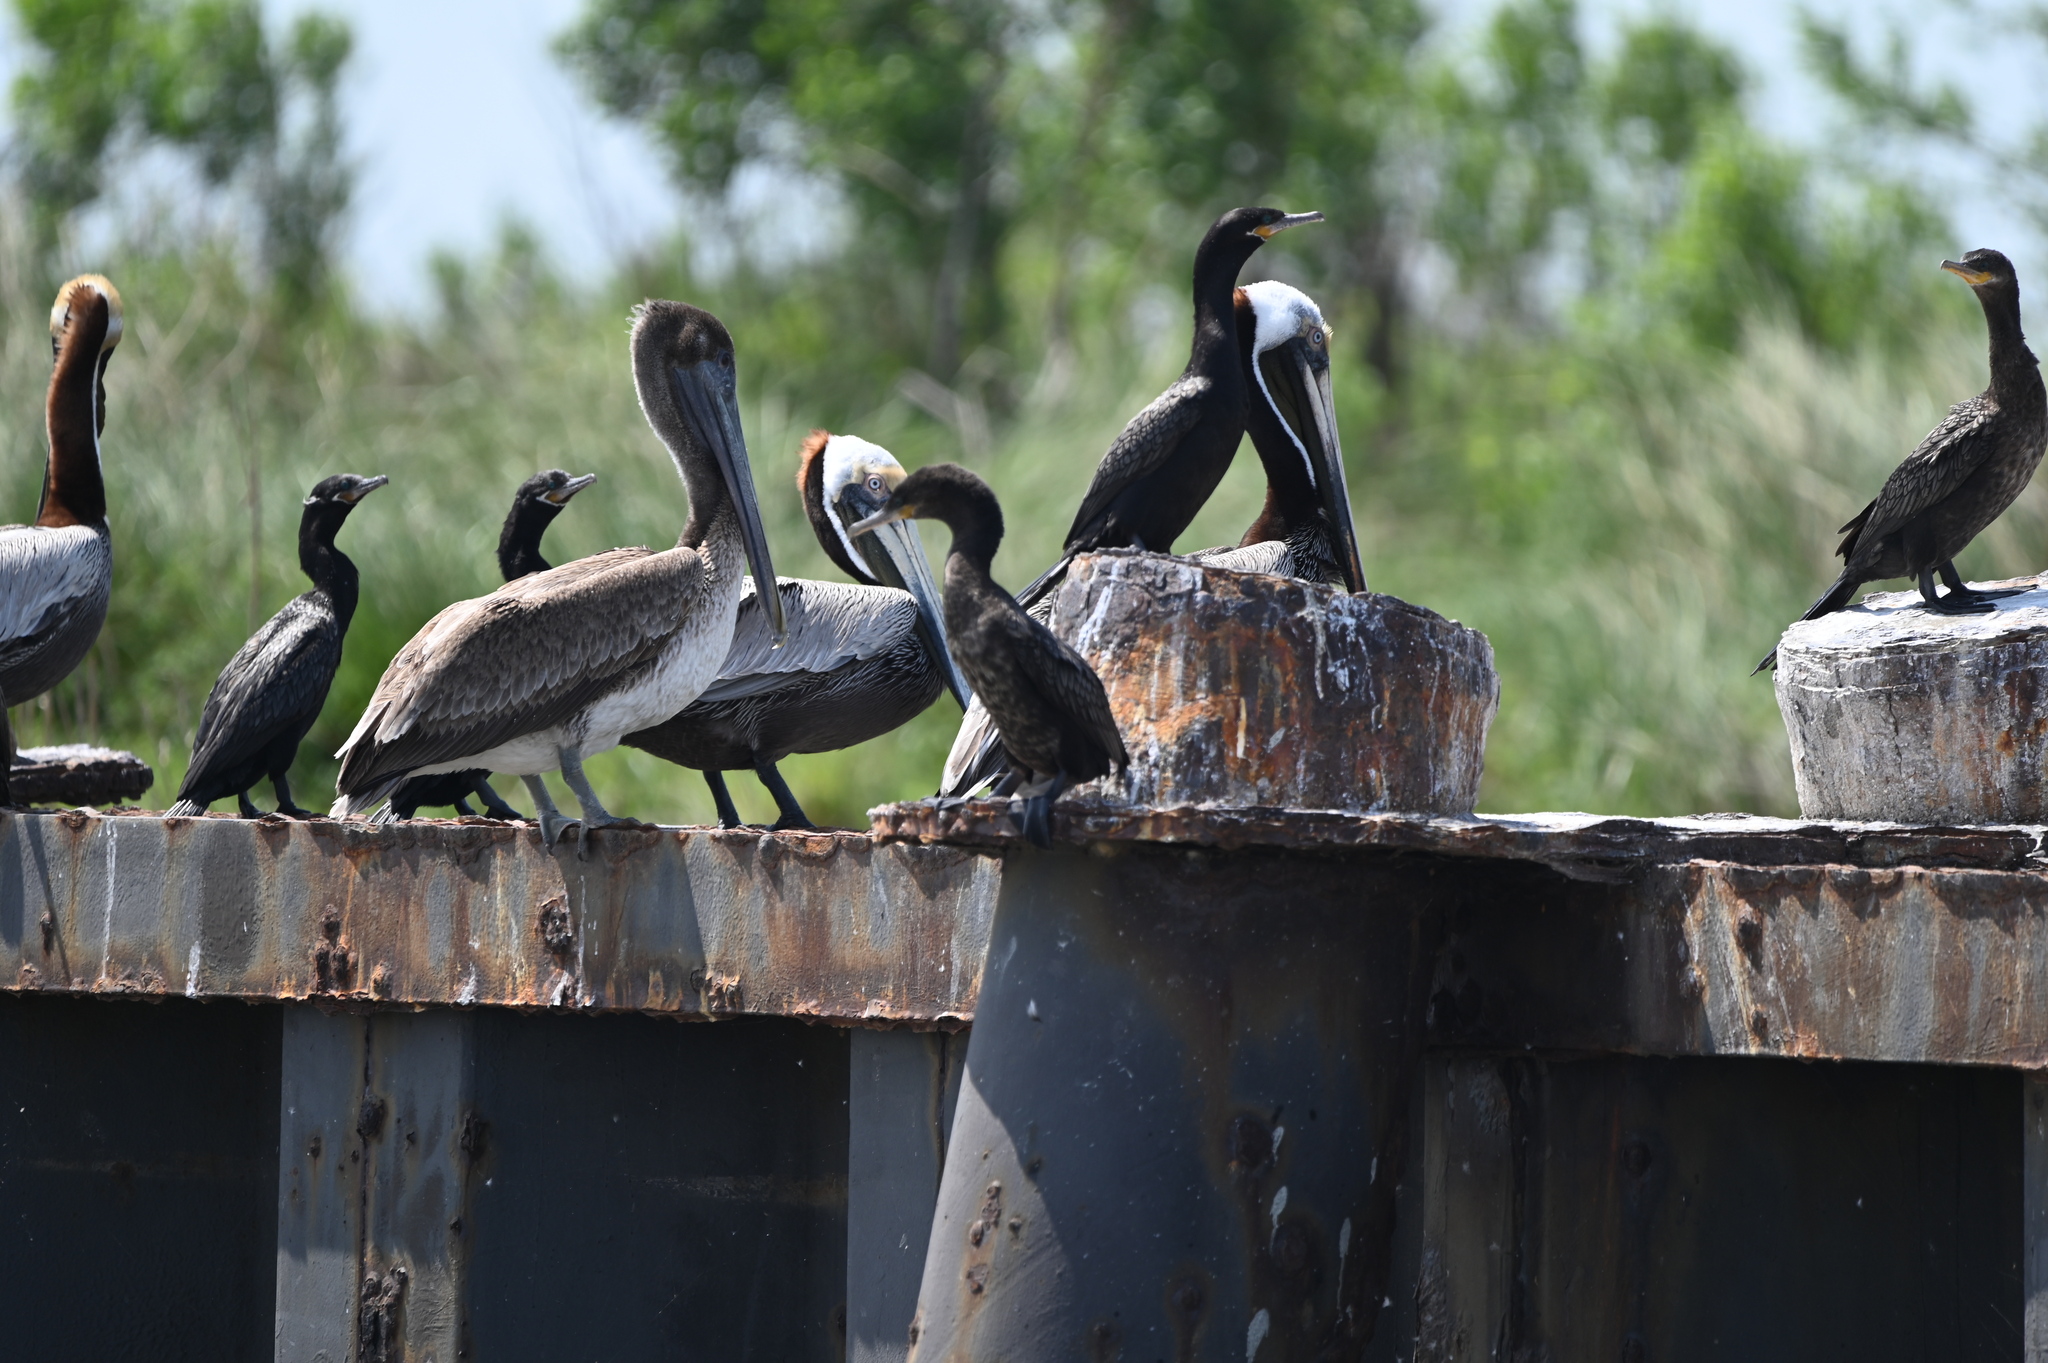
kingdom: Animalia
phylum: Chordata
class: Aves
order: Suliformes
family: Phalacrocoracidae
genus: Phalacrocorax
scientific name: Phalacrocorax brasilianus
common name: Neotropic cormorant
